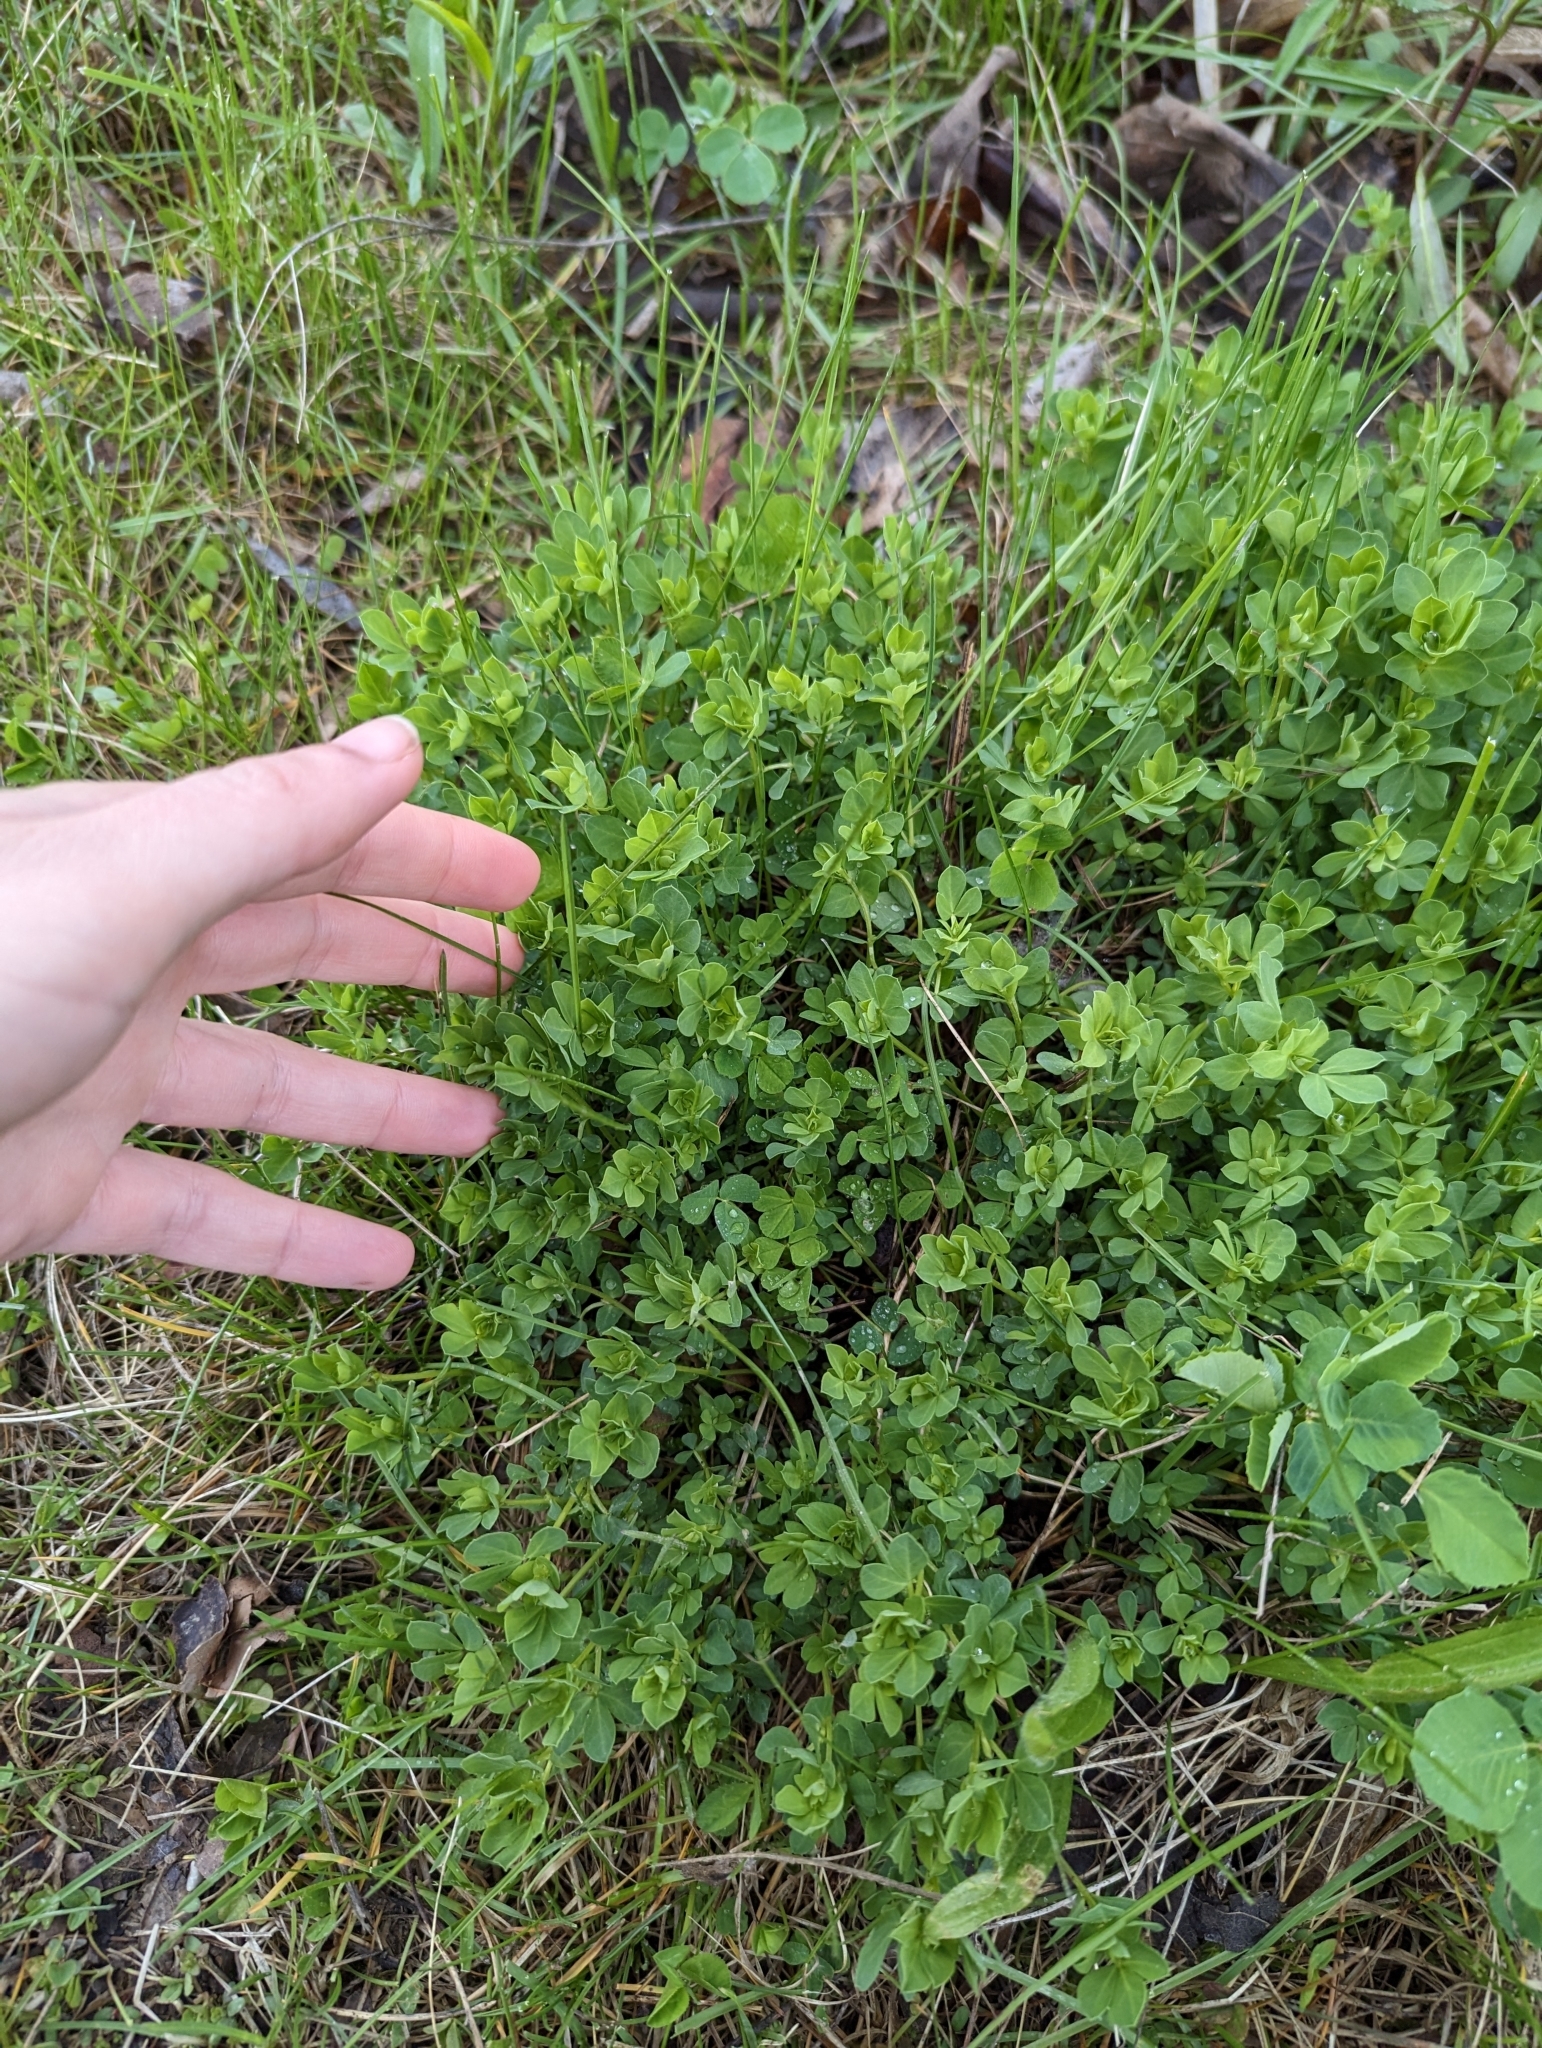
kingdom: Plantae
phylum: Tracheophyta
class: Magnoliopsida
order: Fabales
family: Fabaceae
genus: Lotus
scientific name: Lotus corniculatus
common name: Common bird's-foot-trefoil
